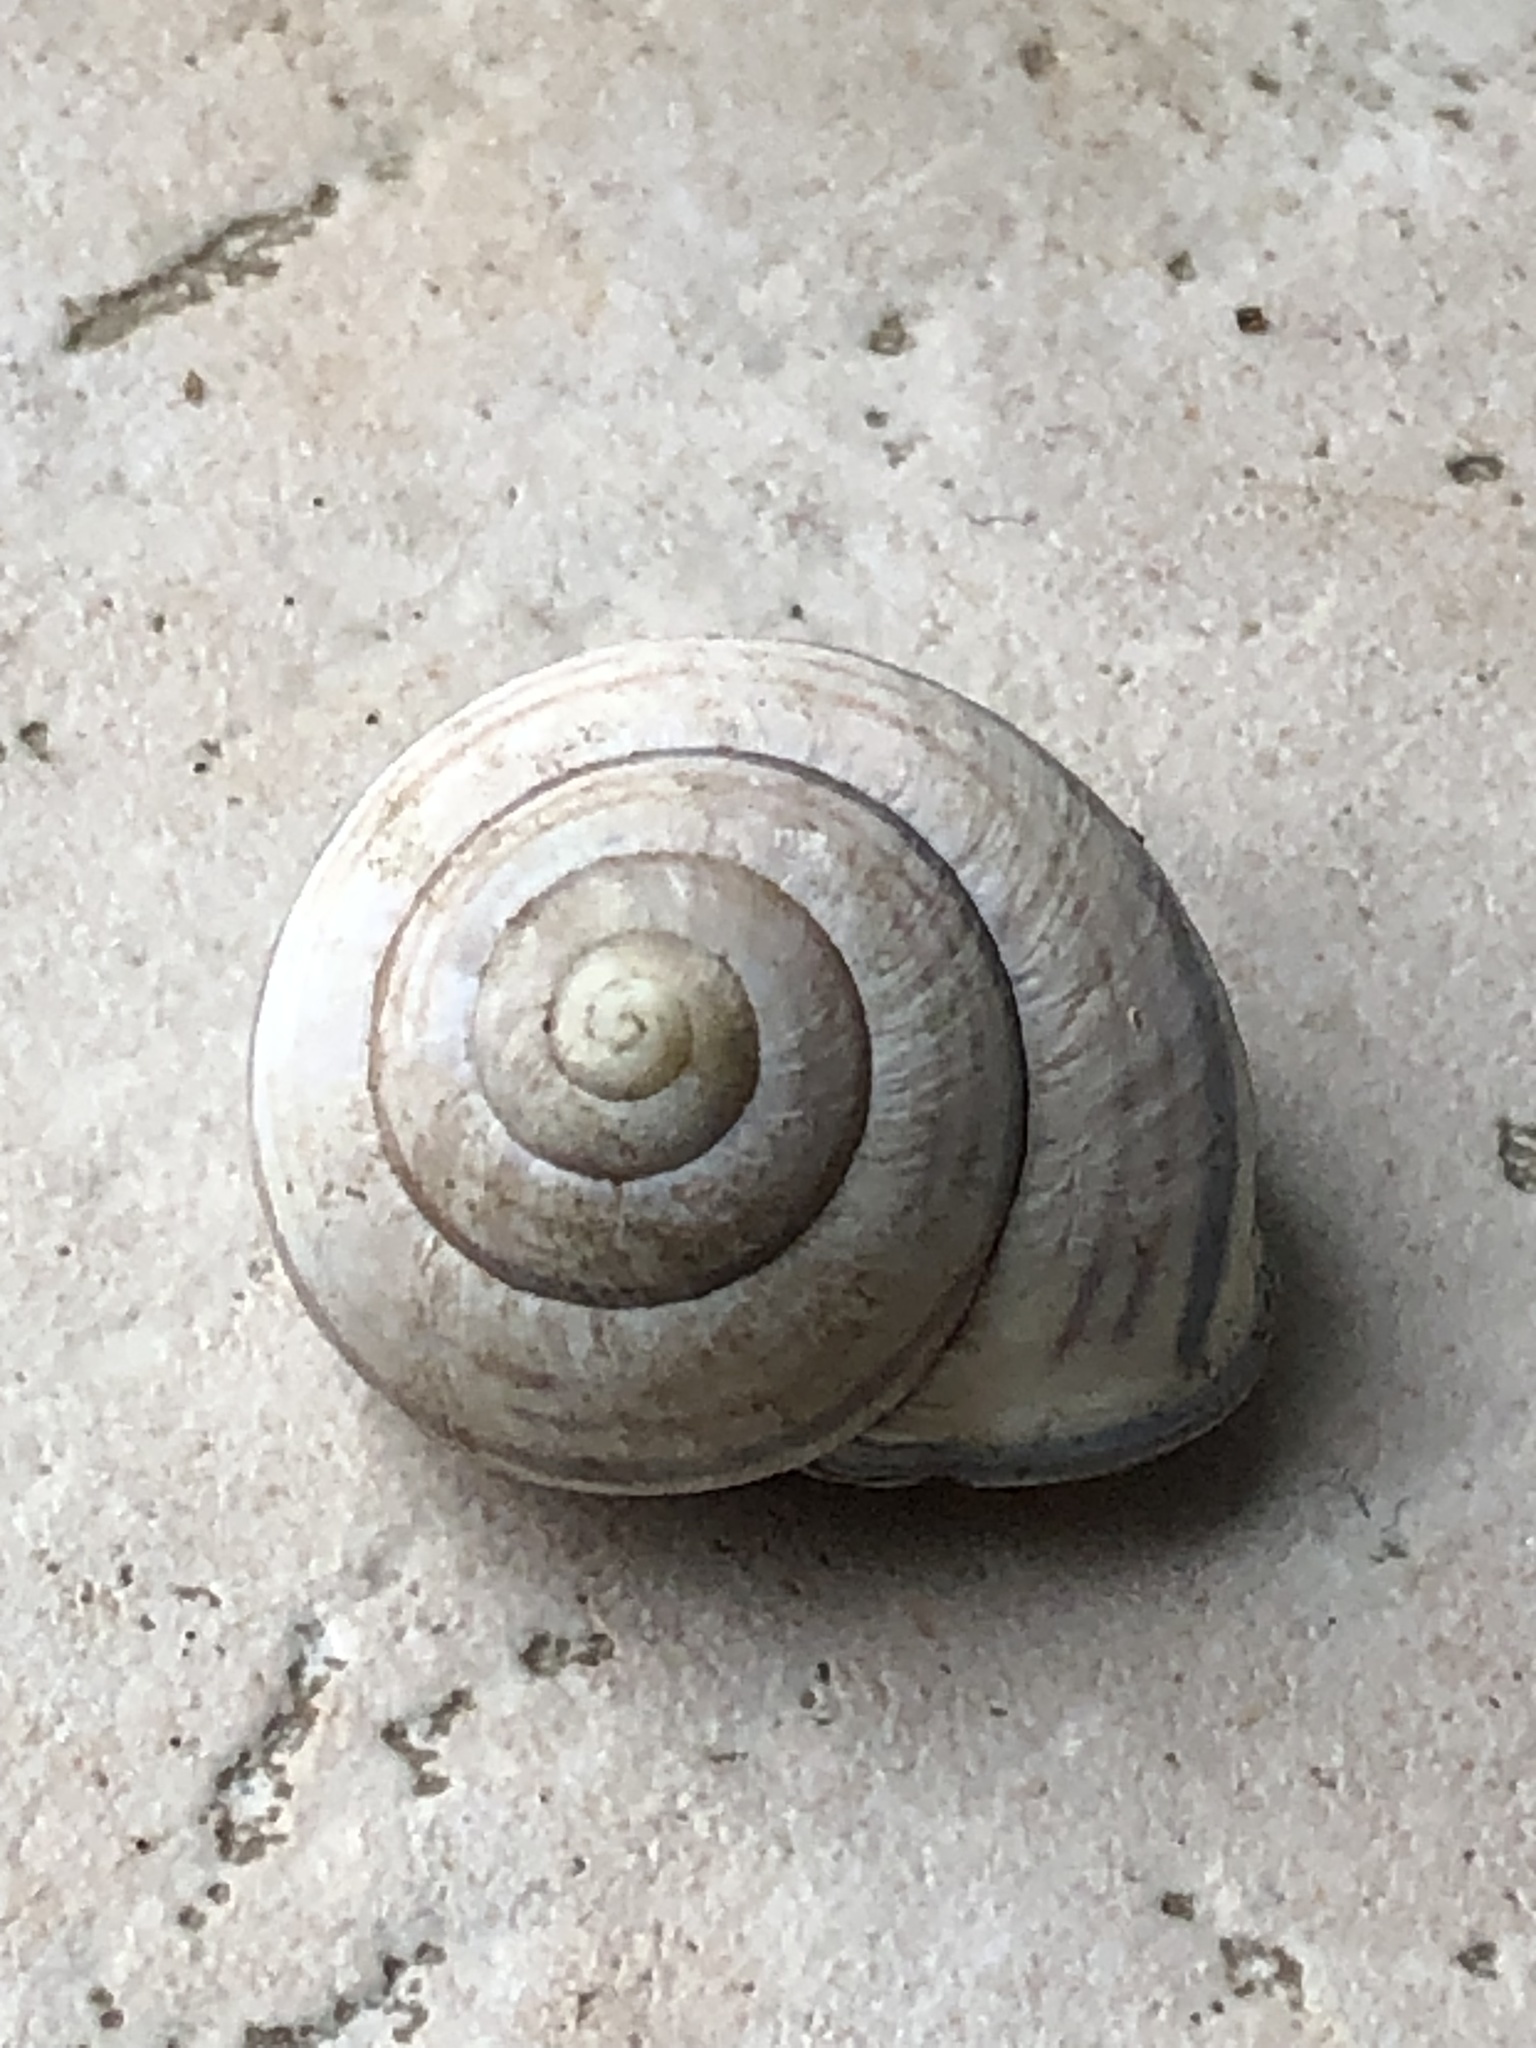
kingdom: Animalia
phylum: Mollusca
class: Gastropoda
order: Stylommatophora
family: Helicidae
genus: Cepaea
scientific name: Cepaea nemoralis
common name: Grovesnail
